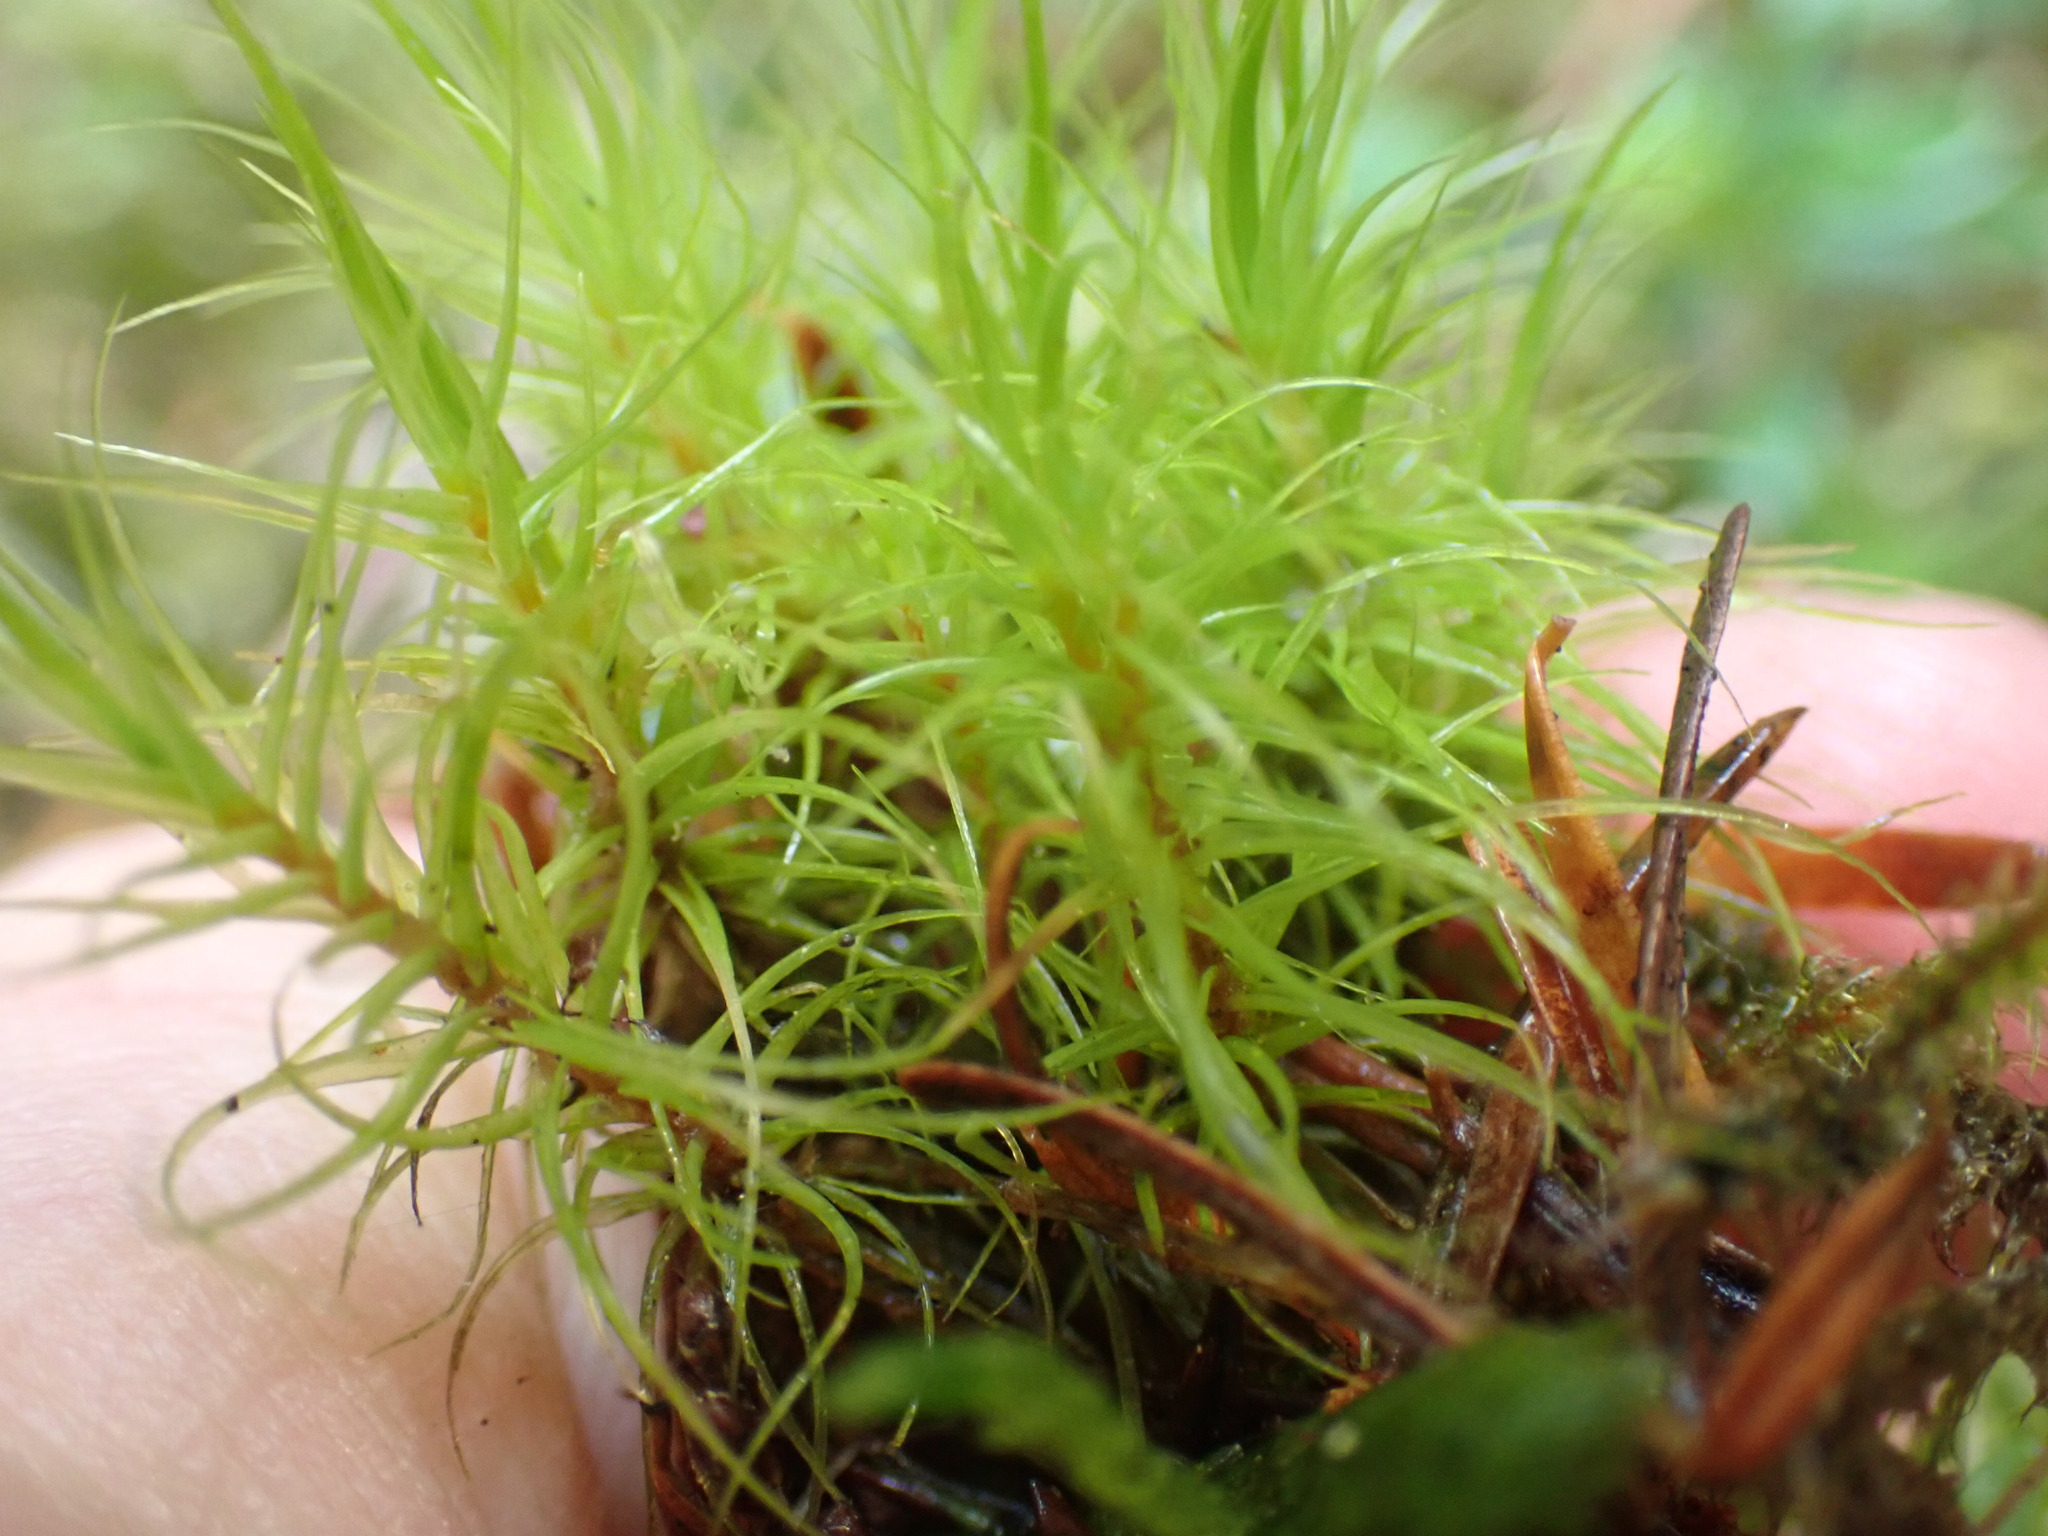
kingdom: Plantae
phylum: Bryophyta
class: Bryopsida
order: Dicranales
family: Dicranaceae
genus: Dicranum
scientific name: Dicranum majus
